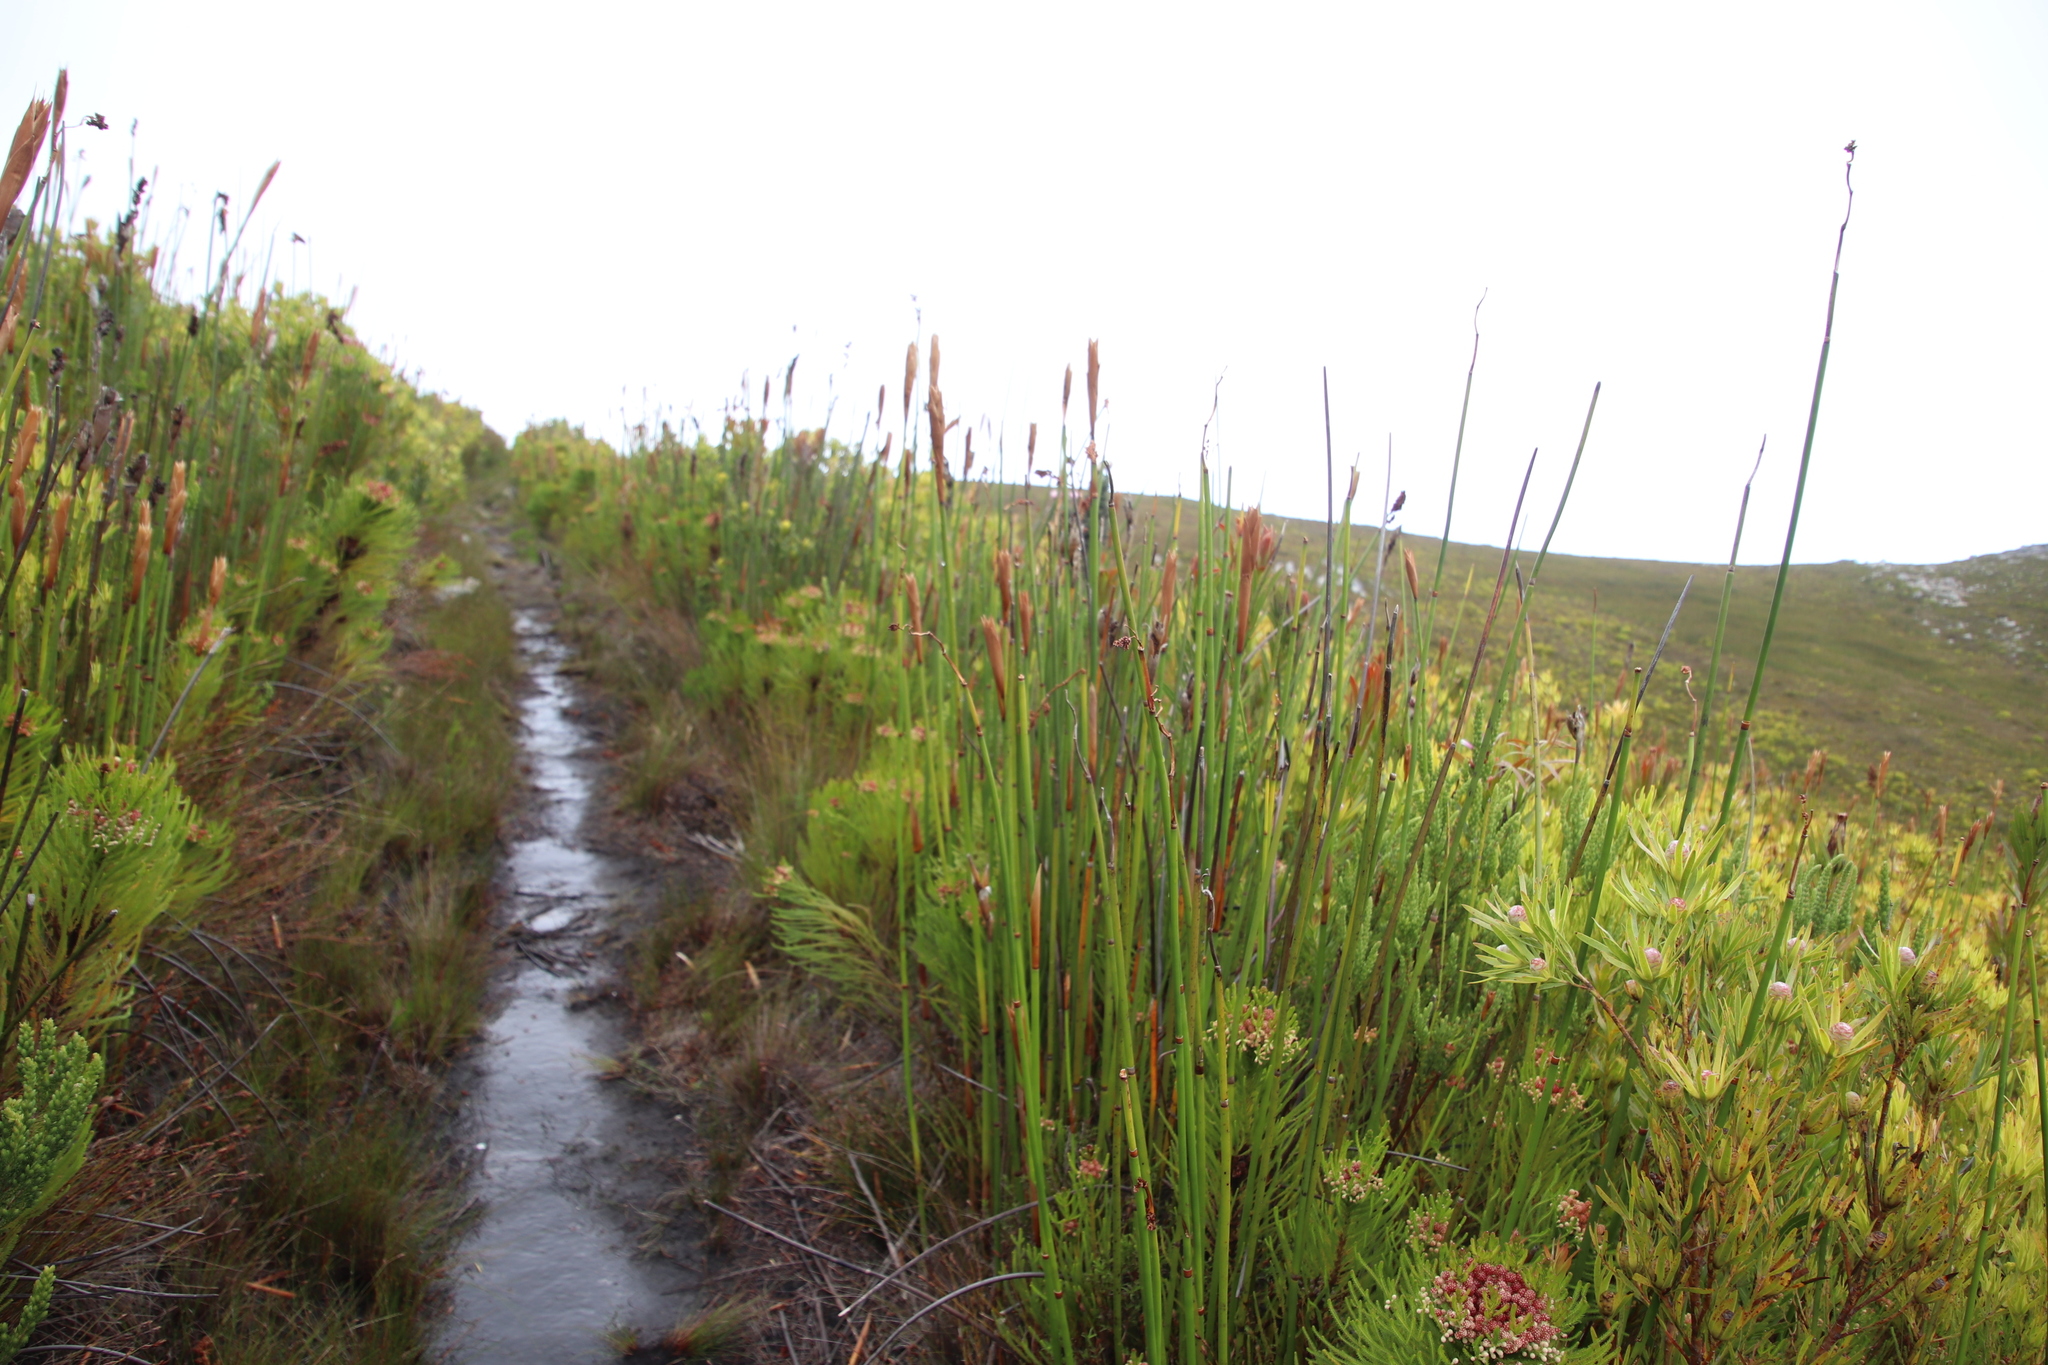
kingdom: Plantae
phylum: Tracheophyta
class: Liliopsida
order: Poales
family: Restionaceae
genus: Elegia
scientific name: Elegia mucronata
